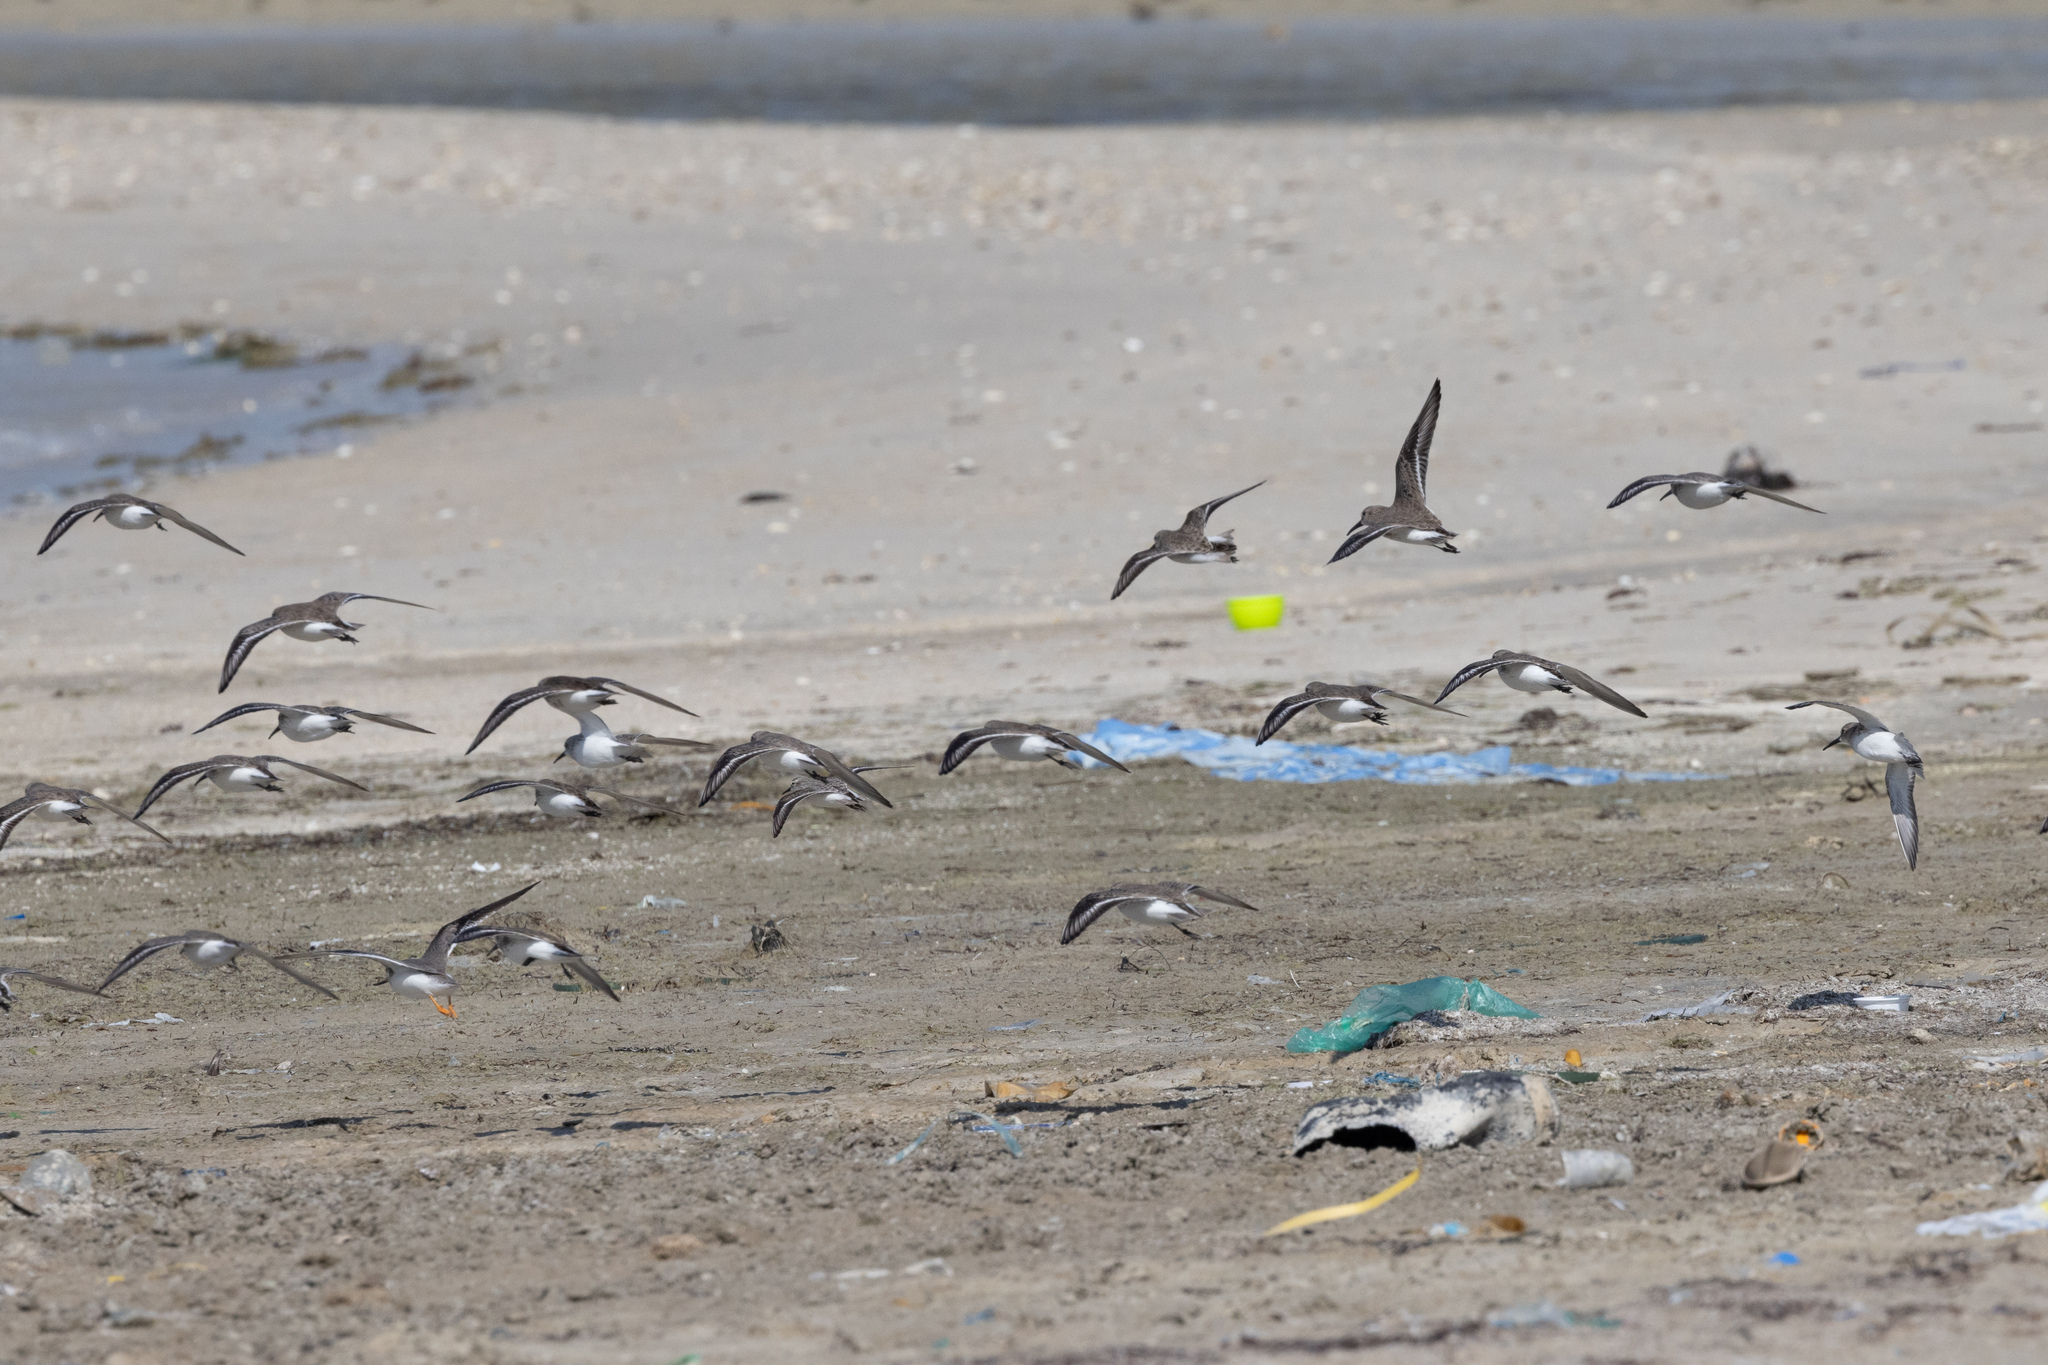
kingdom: Animalia
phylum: Chordata
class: Aves
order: Charadriiformes
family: Scolopacidae
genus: Calidris
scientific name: Calidris alpina
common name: Dunlin
